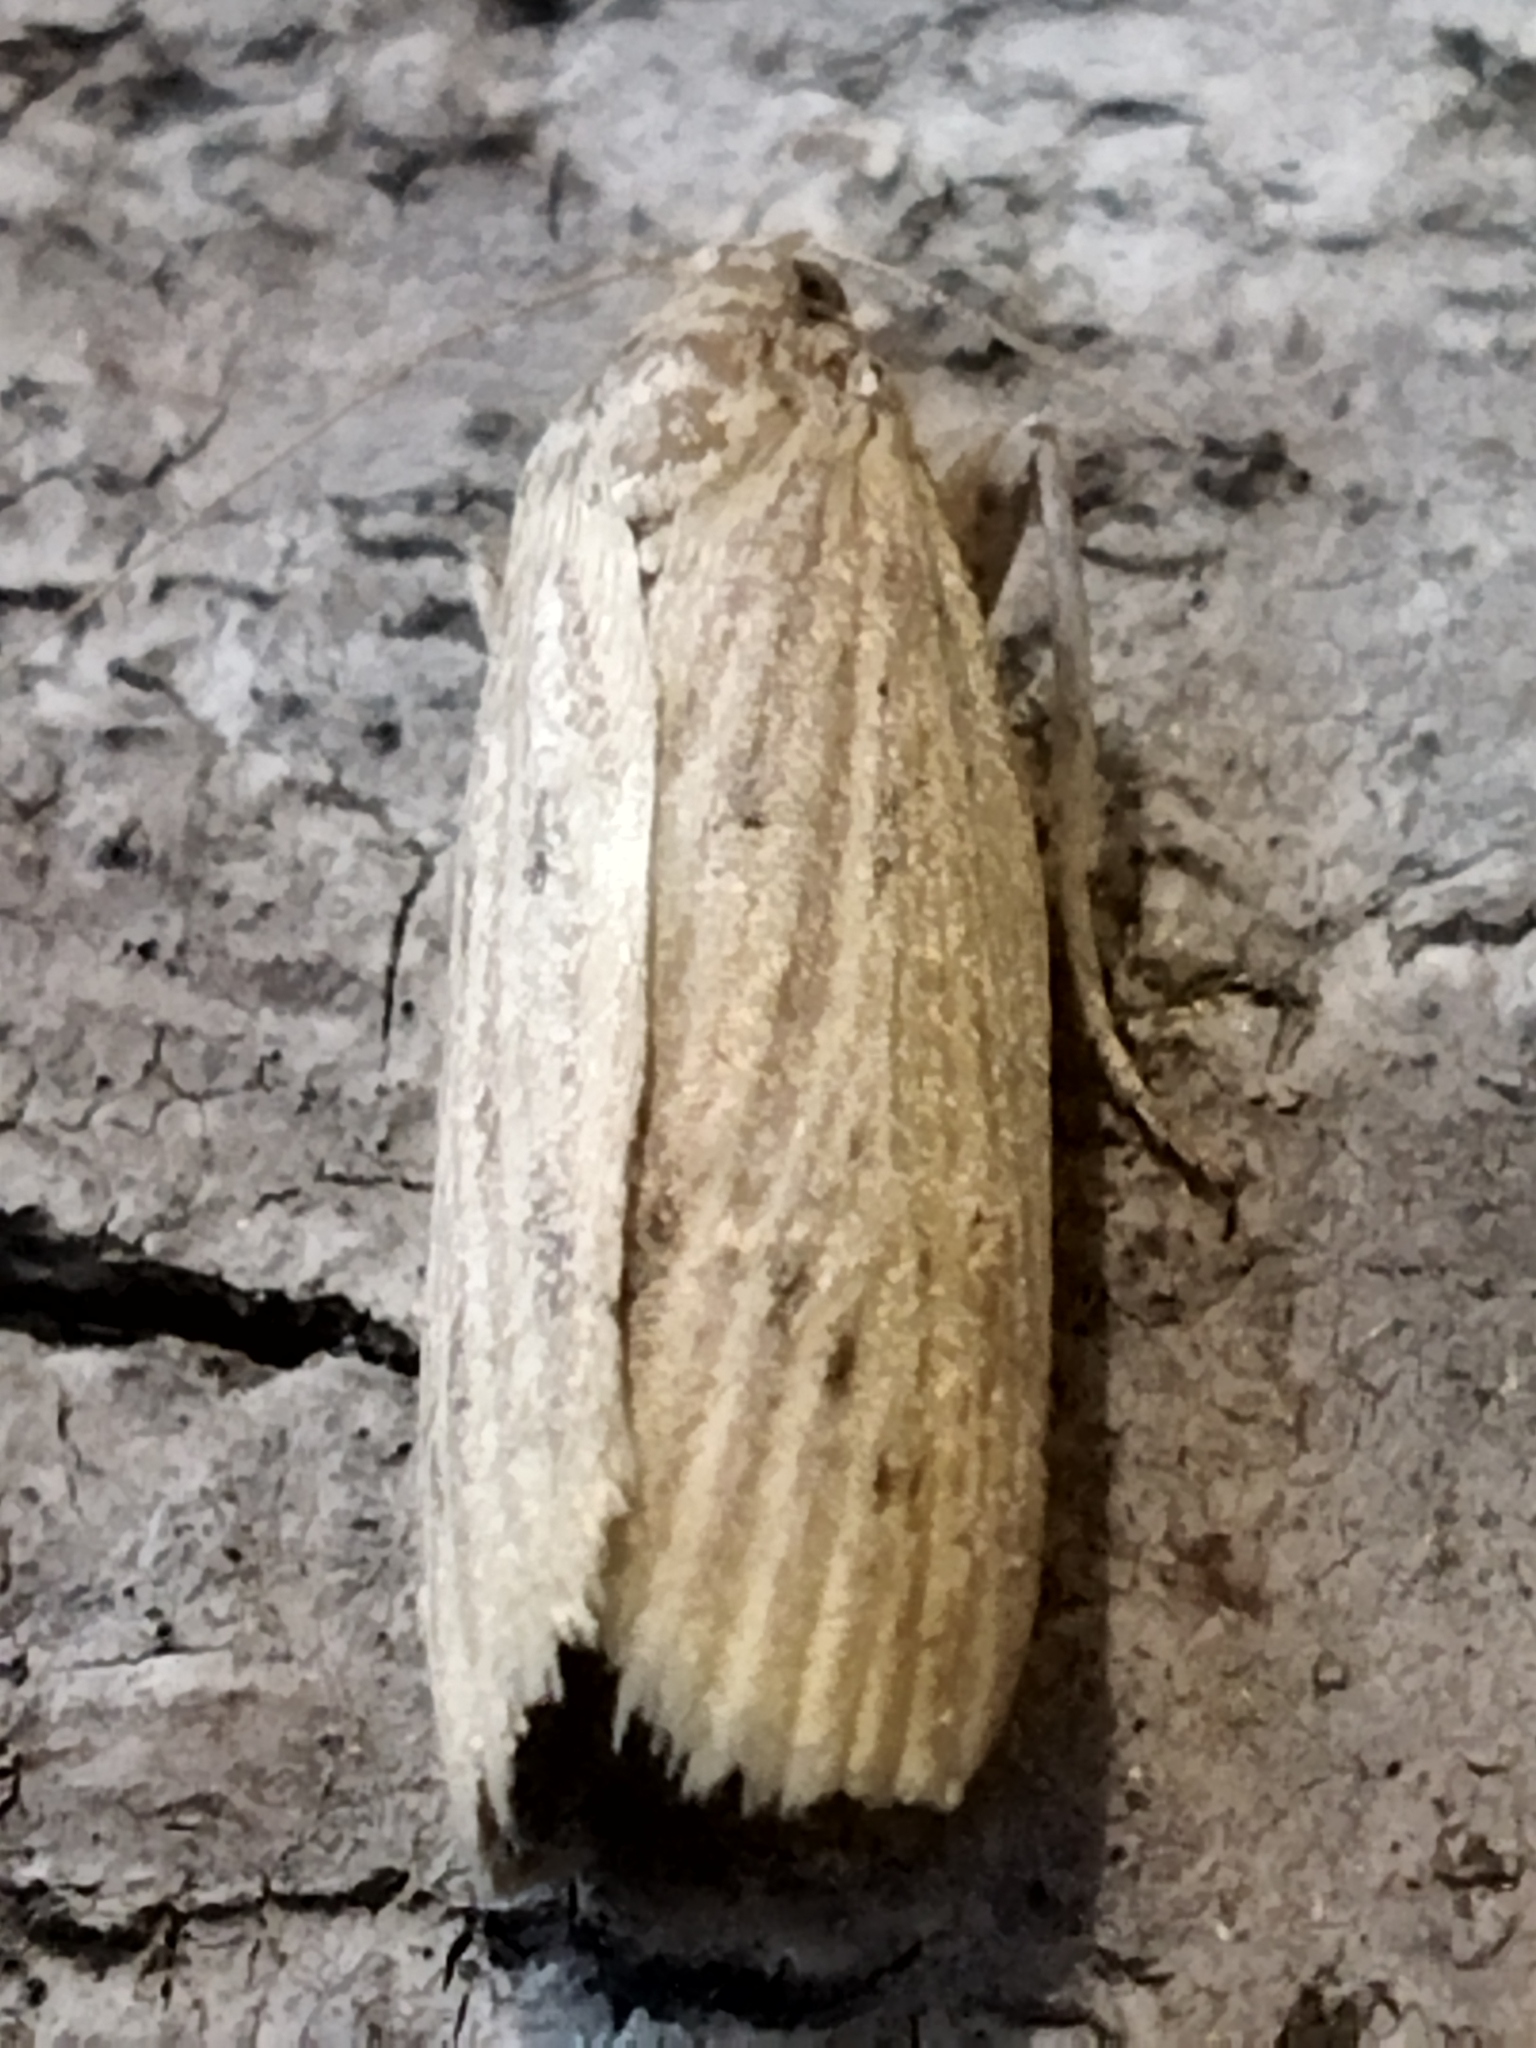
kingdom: Animalia
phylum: Arthropoda
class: Insecta
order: Lepidoptera
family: Pyralidae
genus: Ematheudes
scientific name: Ematheudes punctellus
